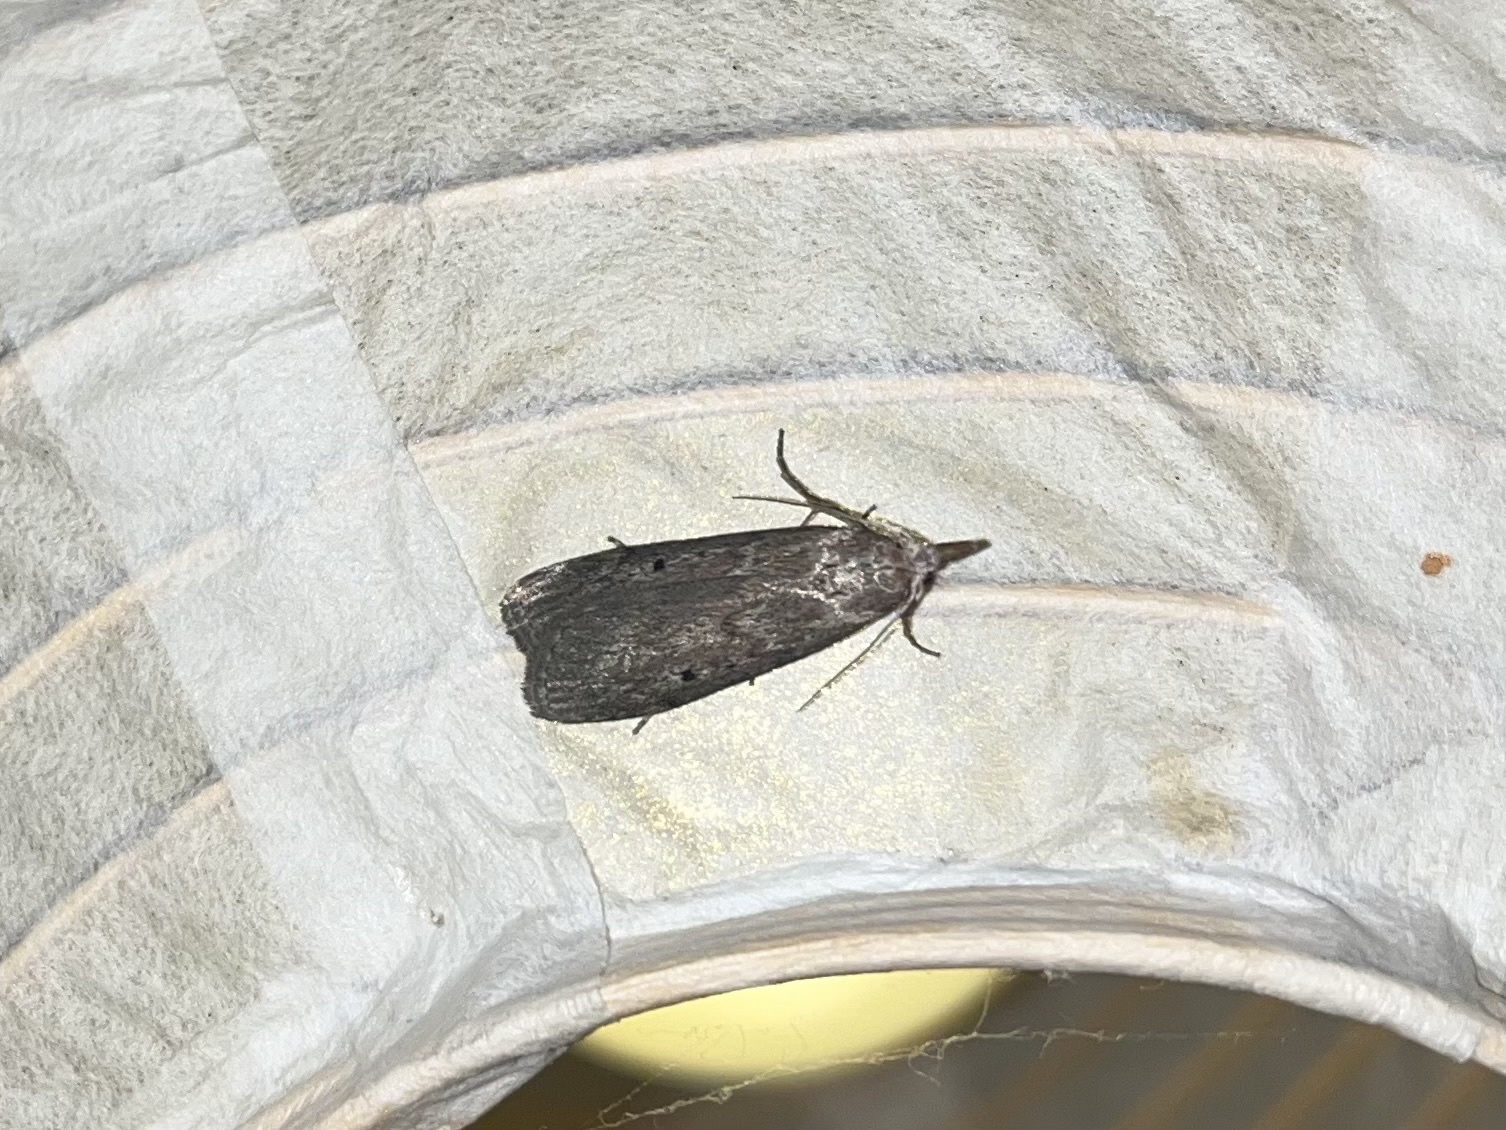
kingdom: Animalia
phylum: Arthropoda
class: Insecta
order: Lepidoptera
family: Pyralidae
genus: Aphomia
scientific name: Aphomia sociella
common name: Bee moth
